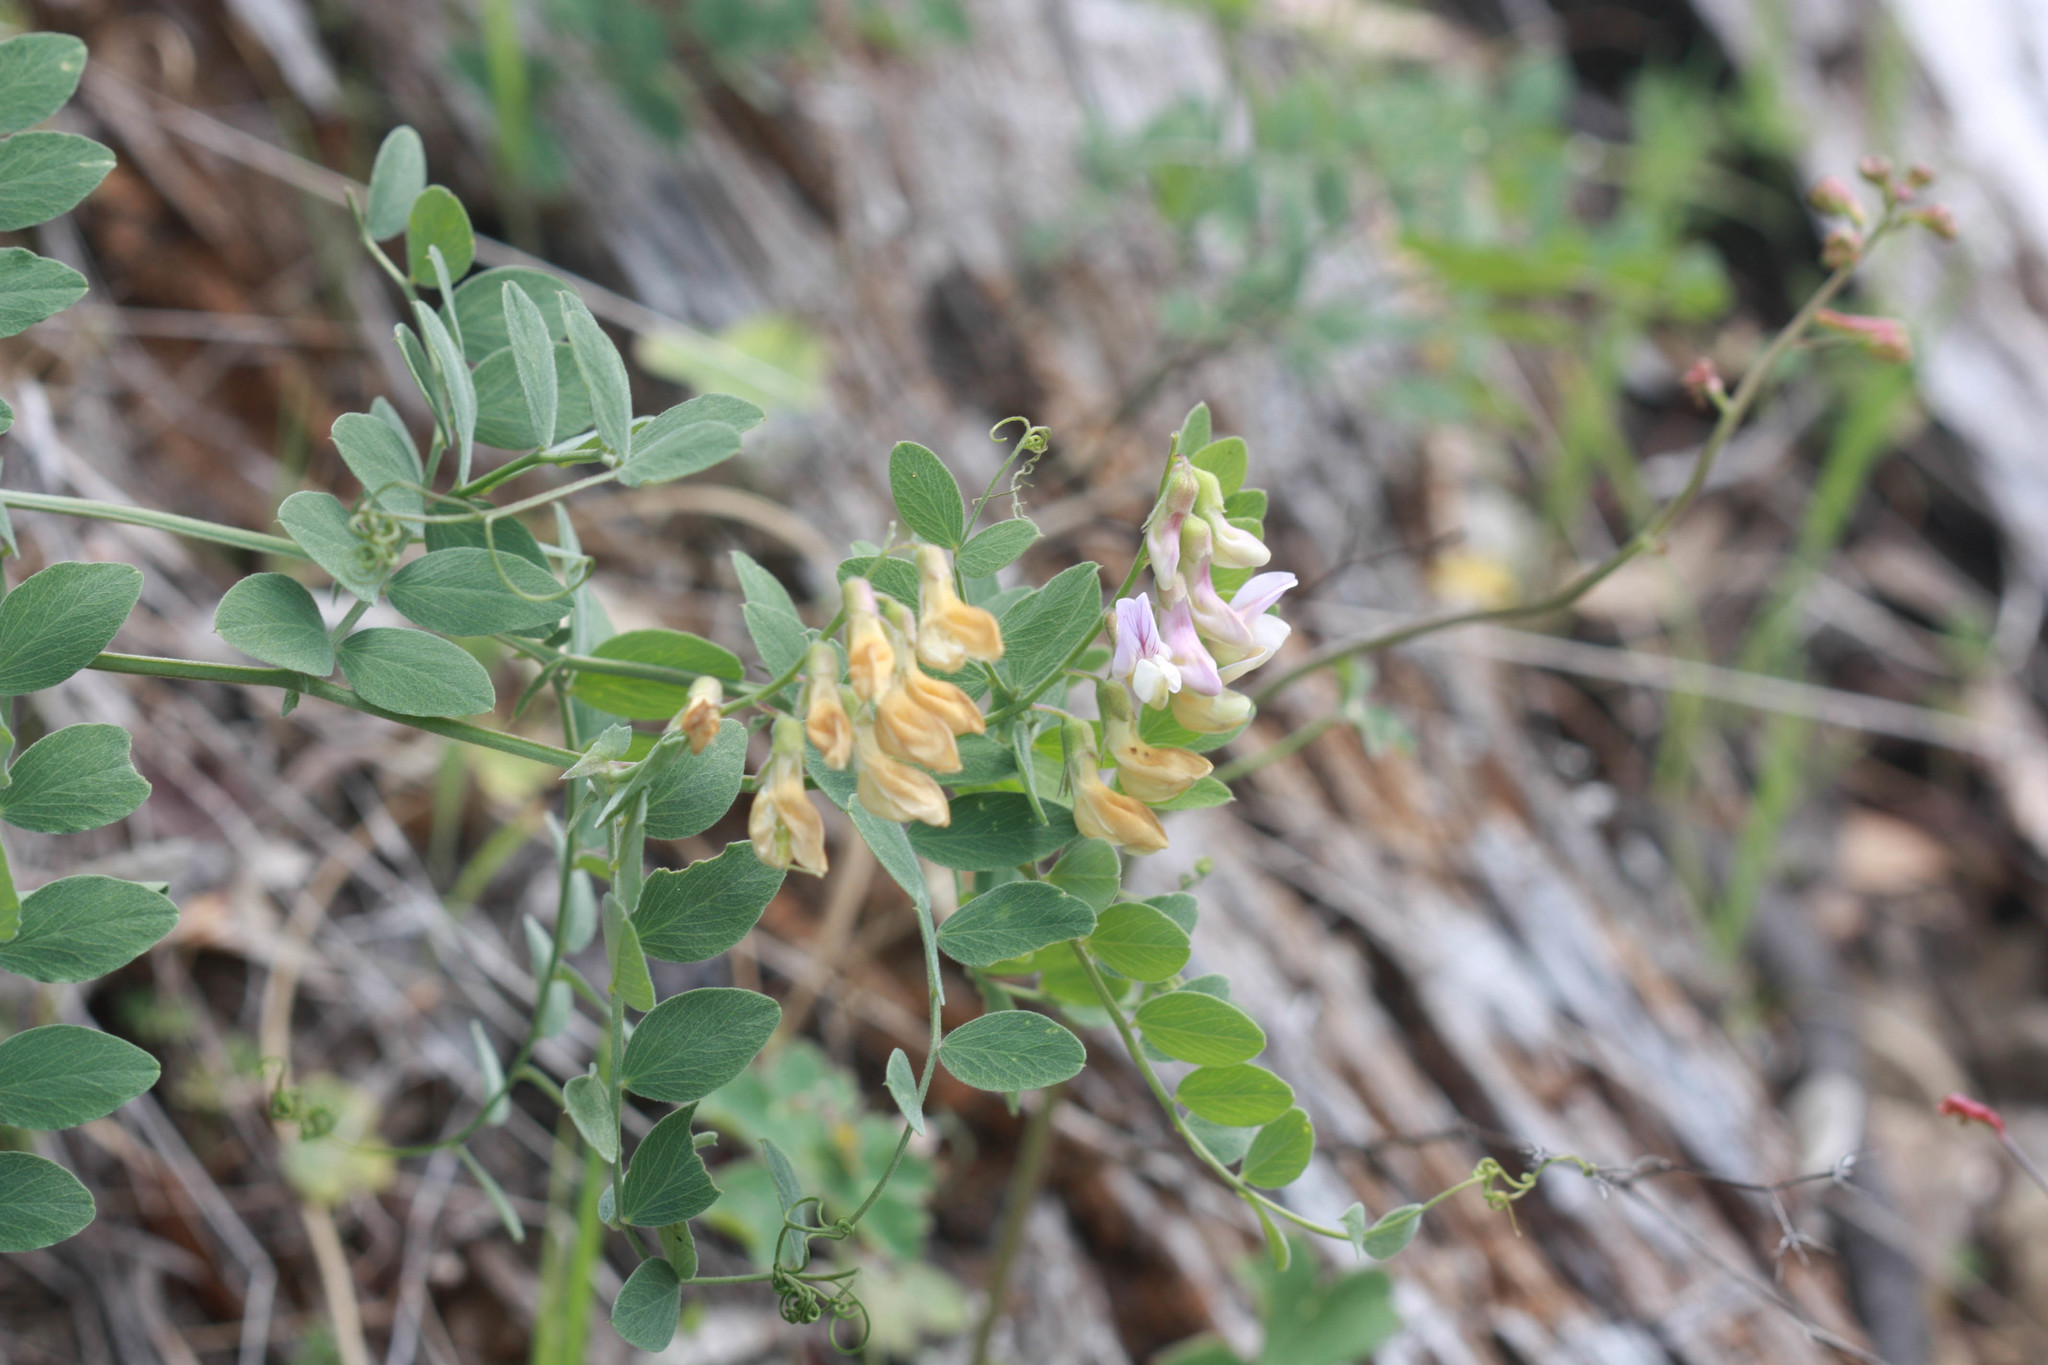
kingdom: Plantae
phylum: Tracheophyta
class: Magnoliopsida
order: Fabales
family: Fabaceae
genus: Lathyrus
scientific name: Lathyrus vestitus
